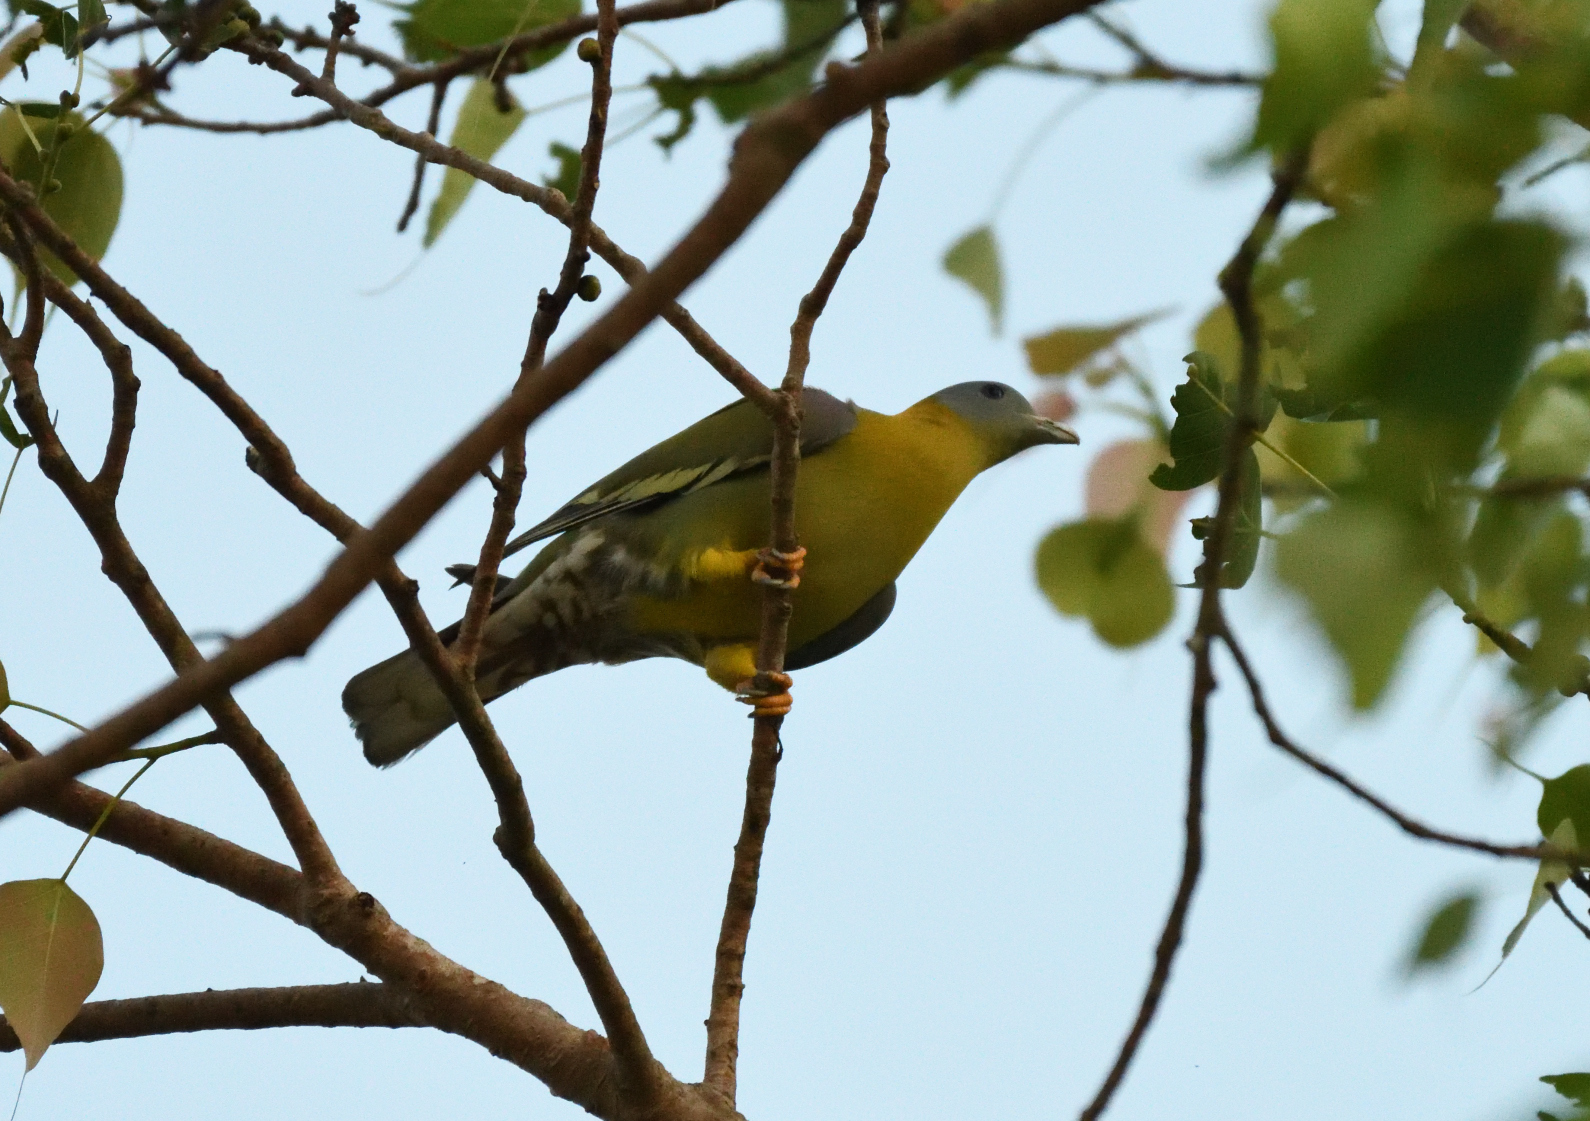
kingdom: Animalia
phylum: Chordata
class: Aves
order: Columbiformes
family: Columbidae
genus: Treron
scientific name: Treron phoenicopterus
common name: Yellow-footed green pigeon
